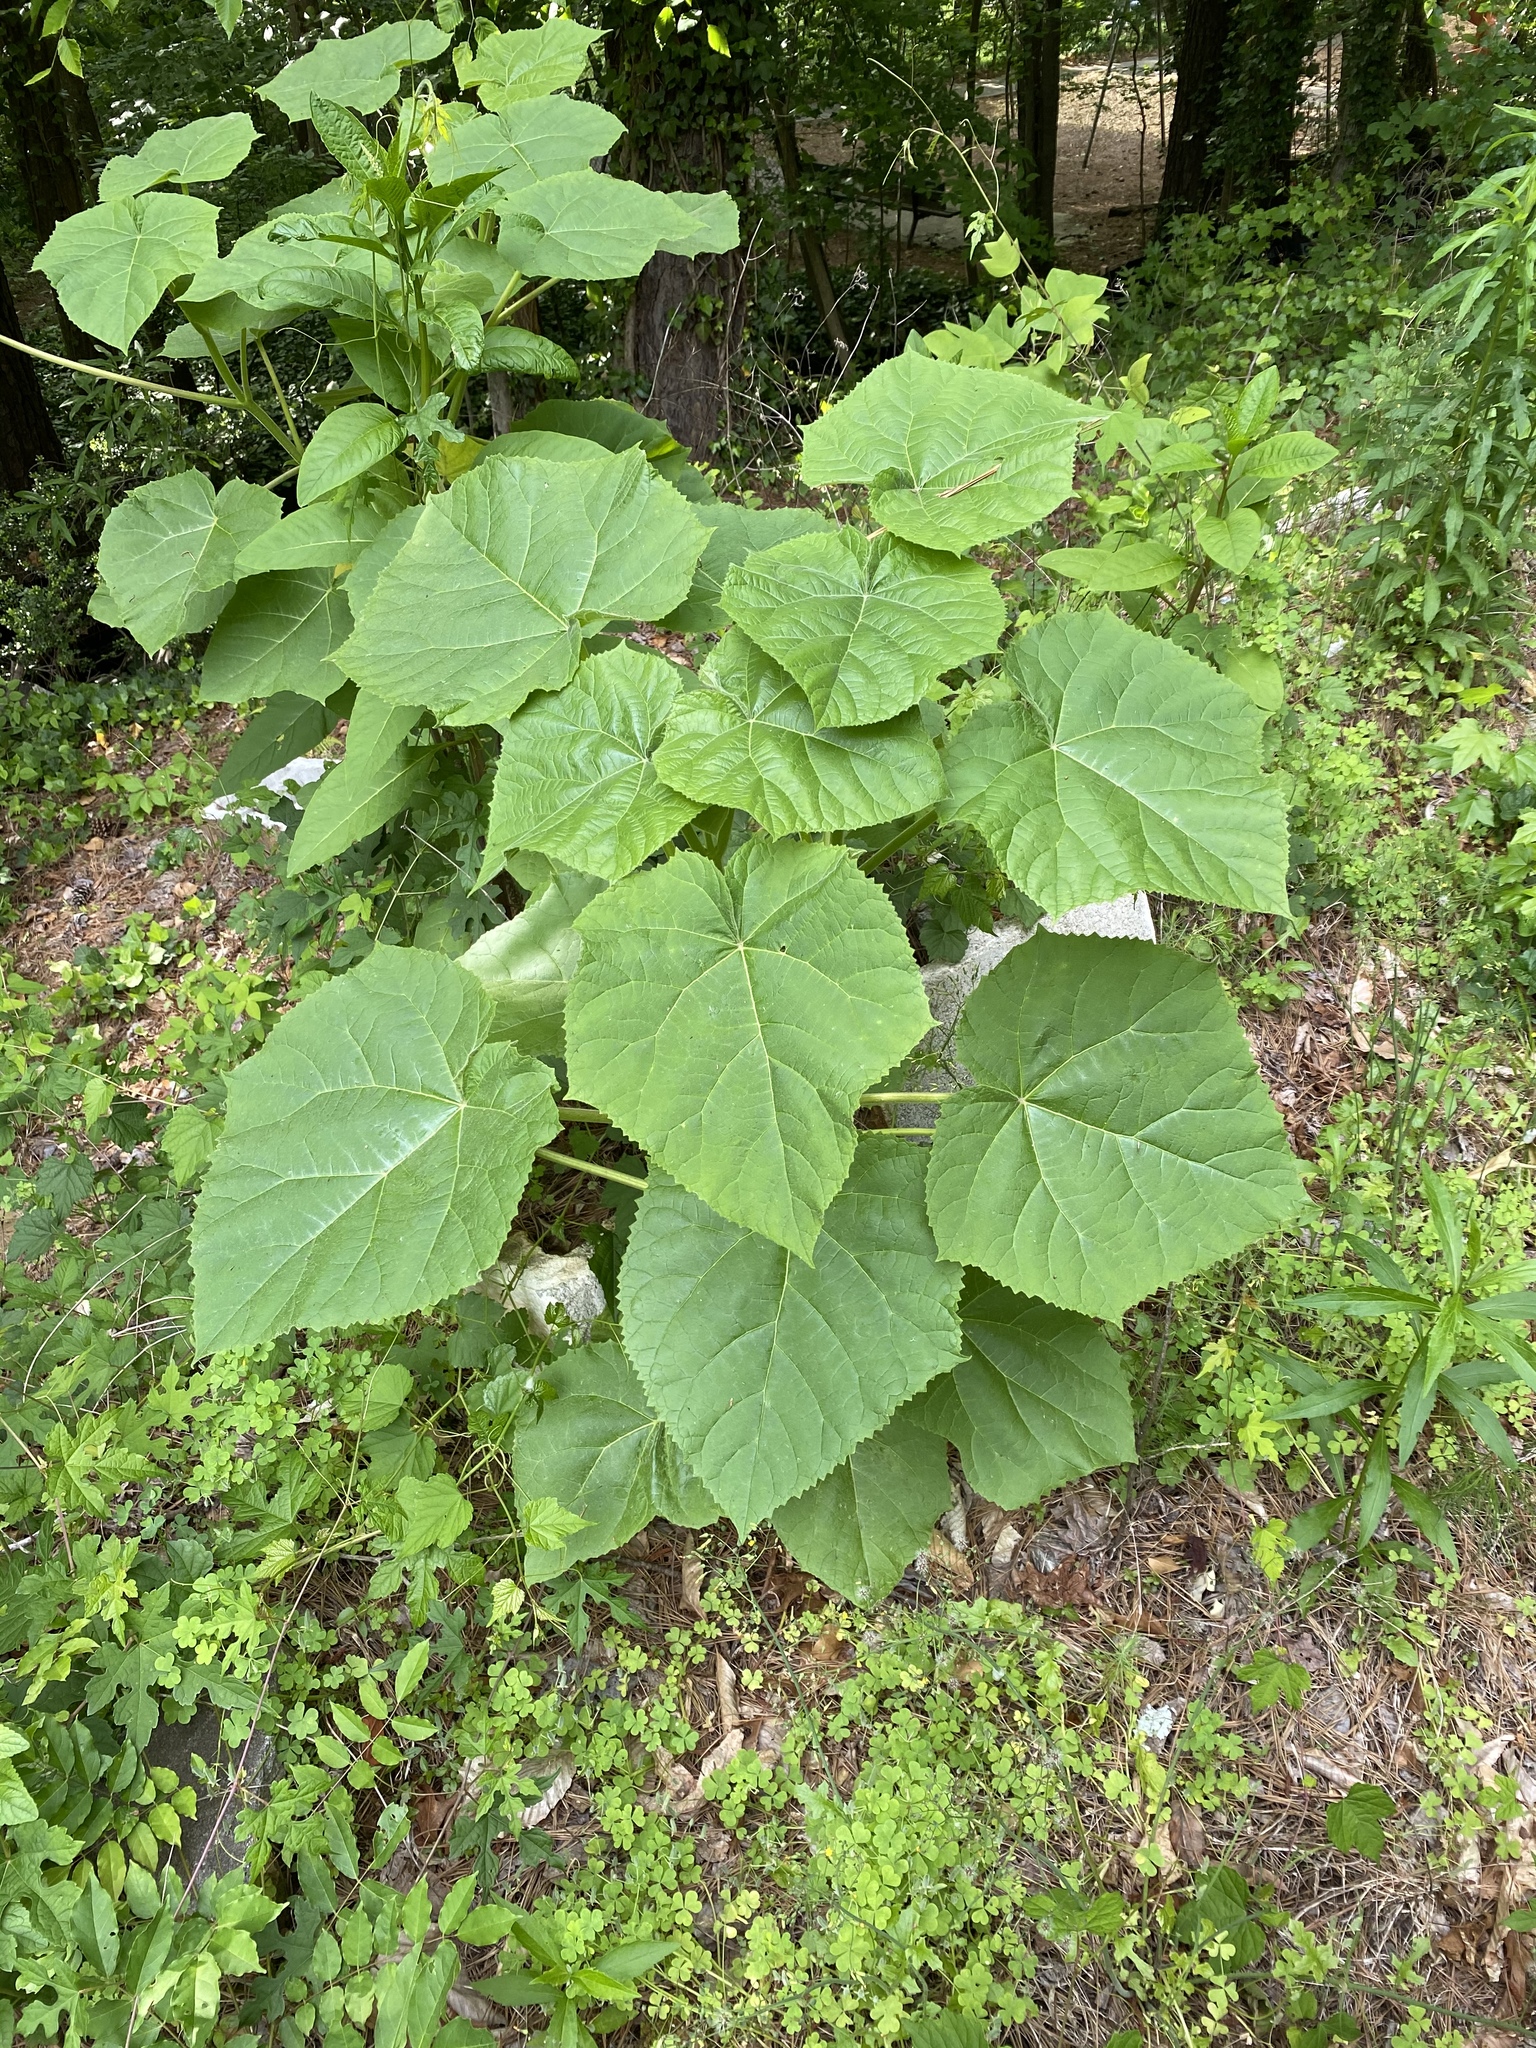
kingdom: Plantae
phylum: Tracheophyta
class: Magnoliopsida
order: Lamiales
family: Paulowniaceae
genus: Paulownia
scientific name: Paulownia tomentosa
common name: Foxglove-tree
